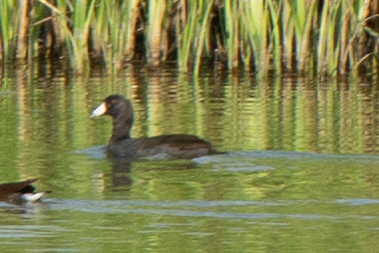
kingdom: Animalia
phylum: Chordata
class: Aves
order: Gruiformes
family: Rallidae
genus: Fulica
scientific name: Fulica americana
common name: American coot
